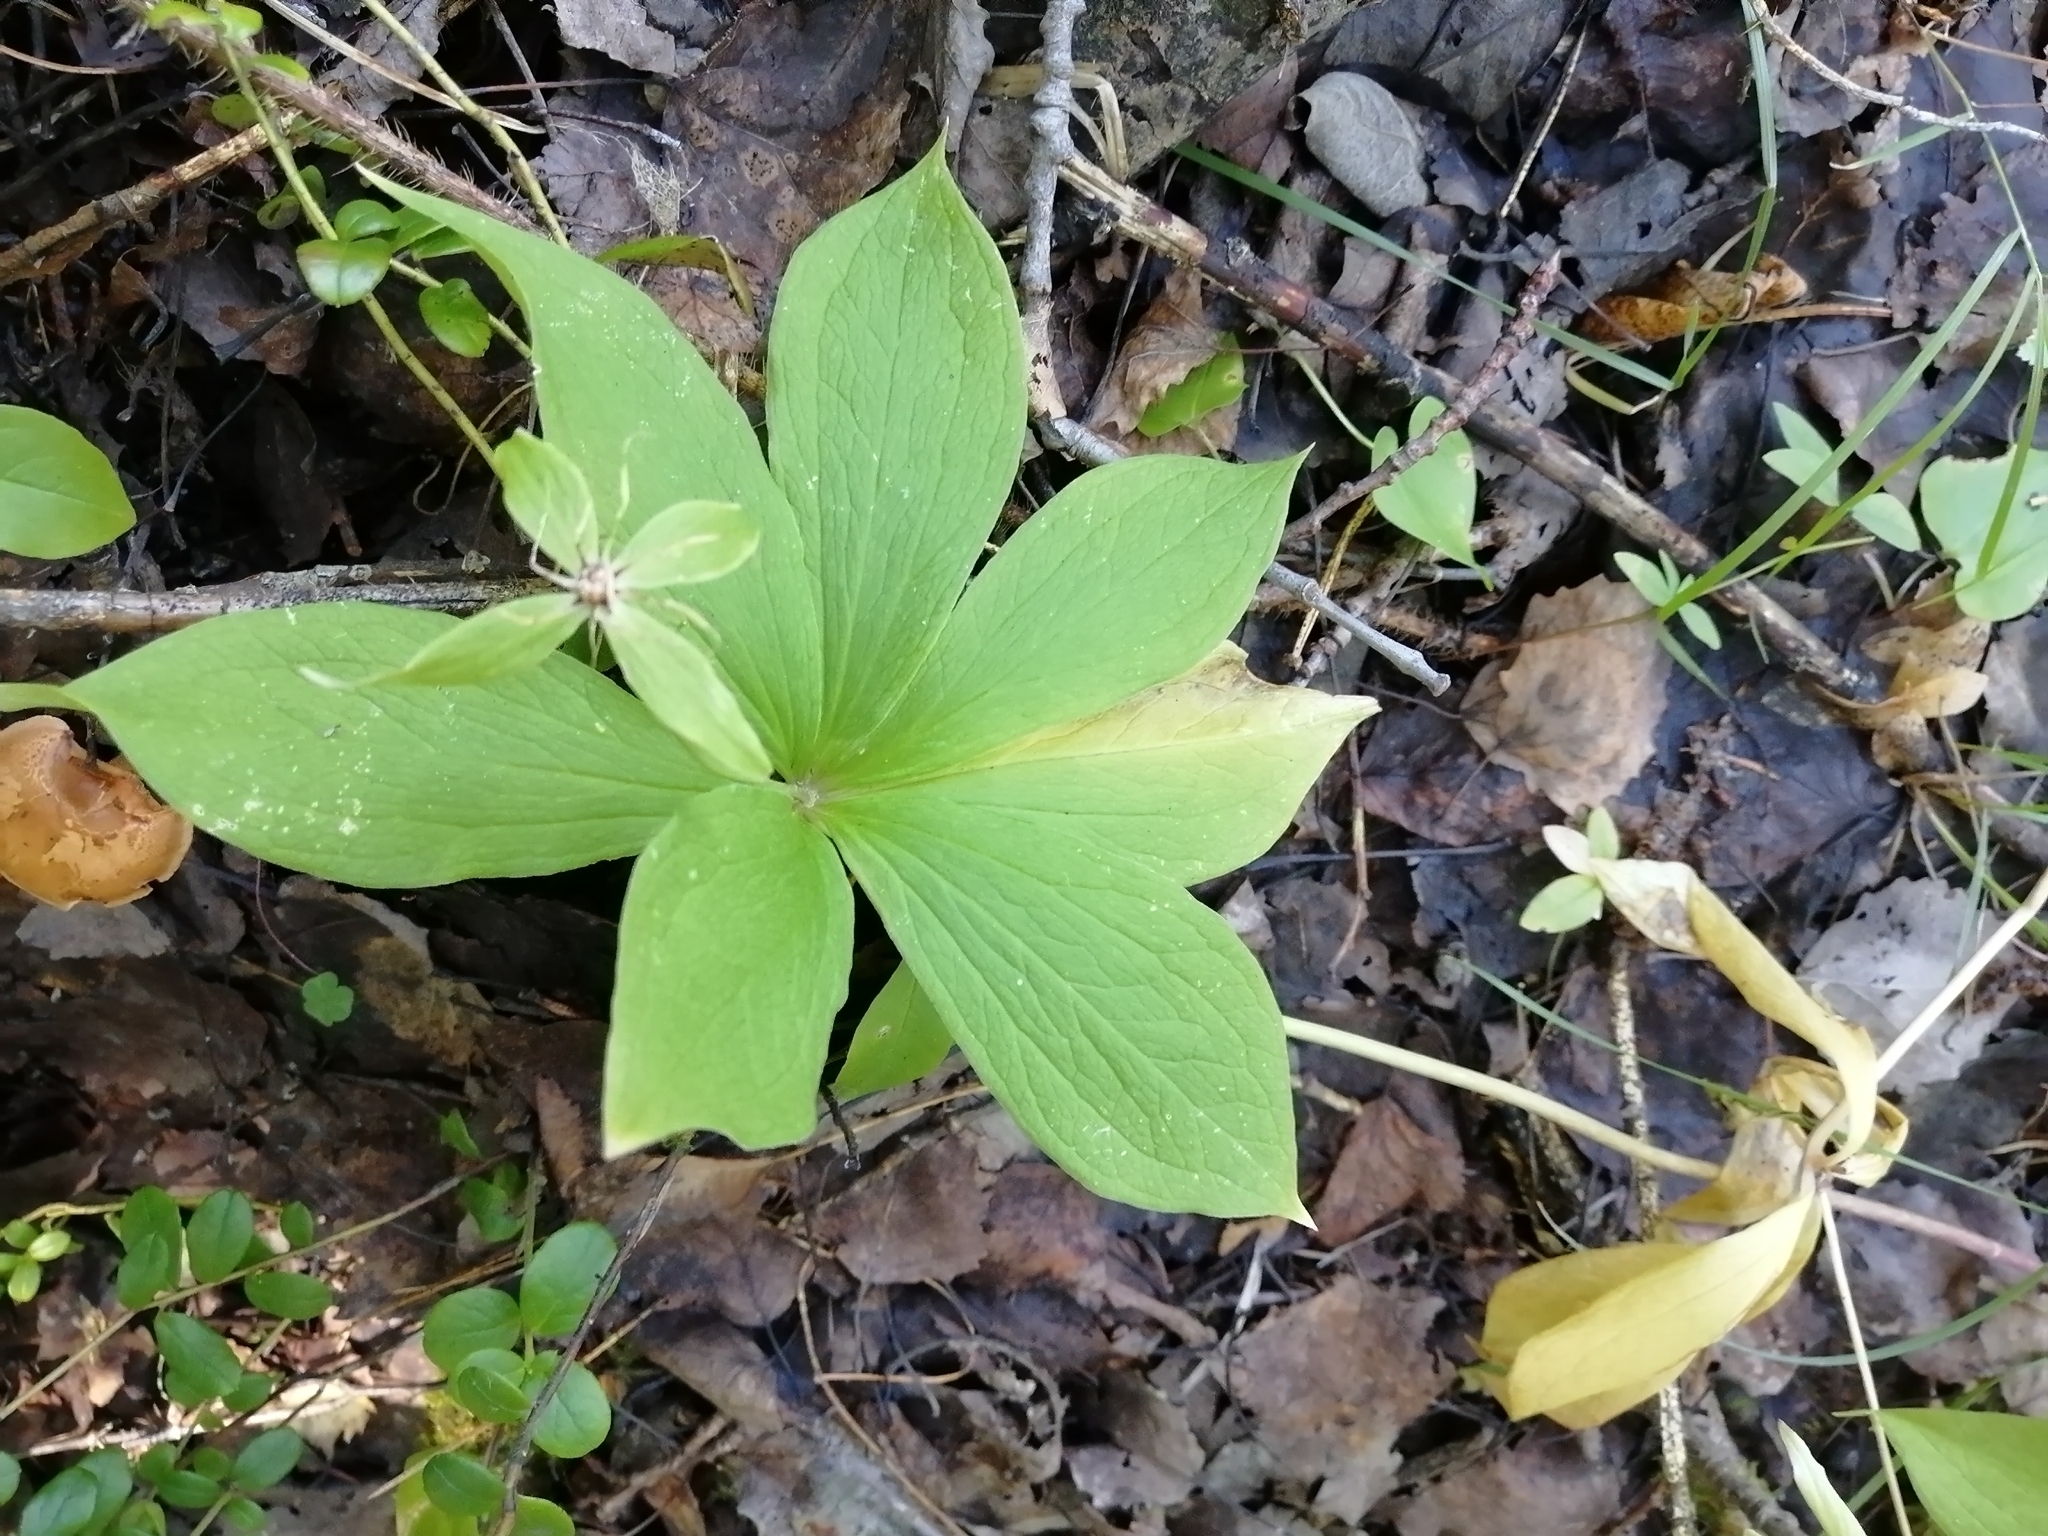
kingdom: Plantae
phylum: Tracheophyta
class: Liliopsida
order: Liliales
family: Melanthiaceae
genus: Paris
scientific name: Paris verticillata
